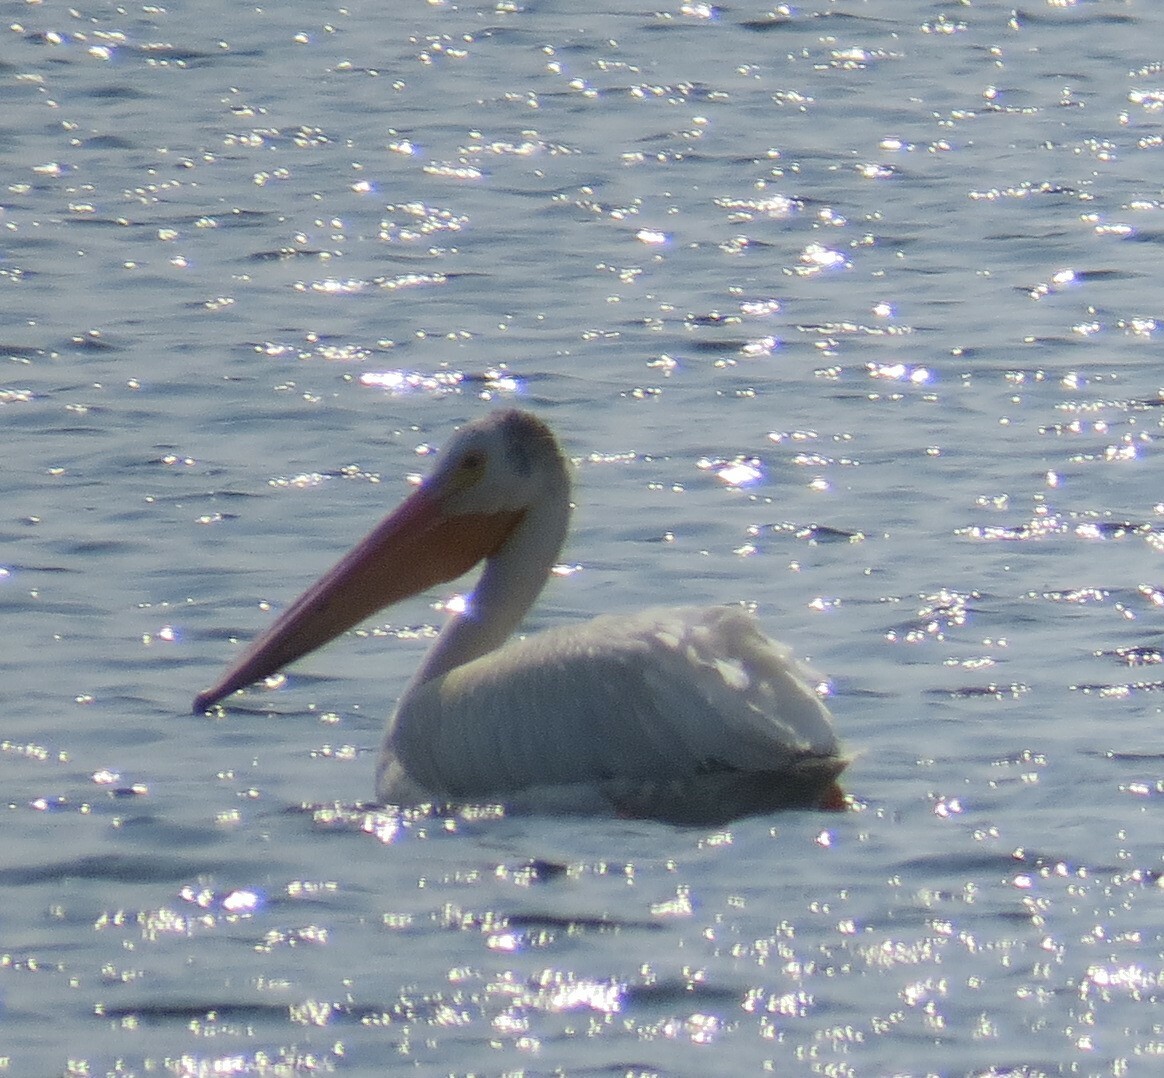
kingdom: Animalia
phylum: Chordata
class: Aves
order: Pelecaniformes
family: Pelecanidae
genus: Pelecanus
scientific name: Pelecanus erythrorhynchos
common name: American white pelican
